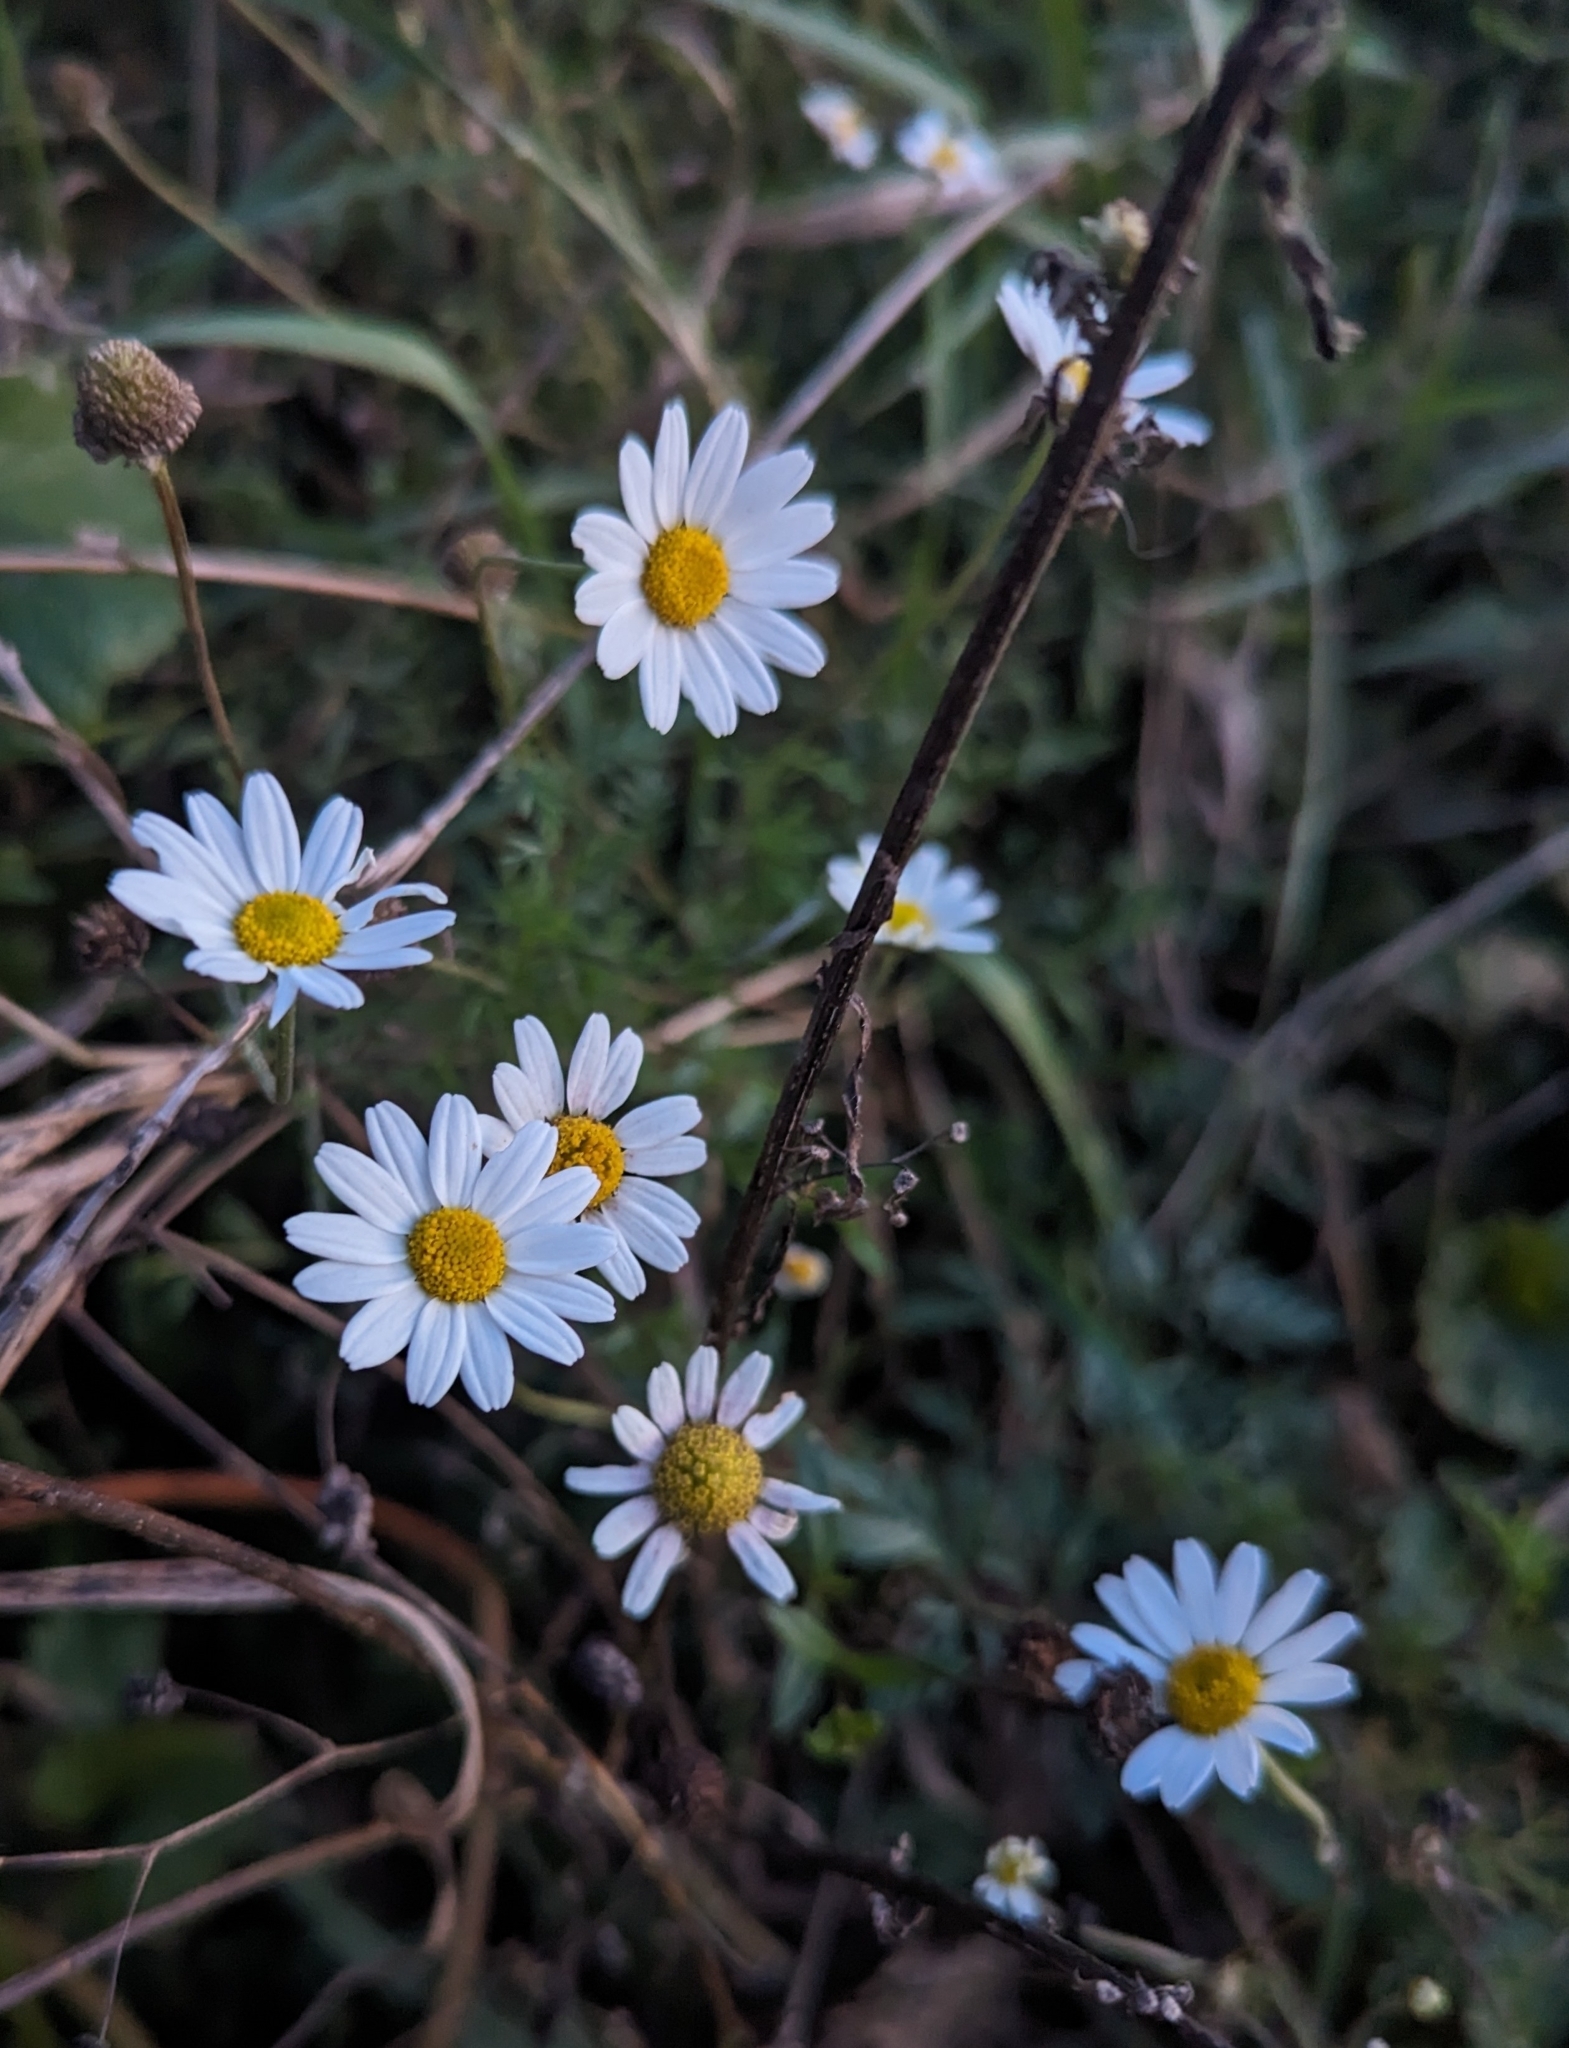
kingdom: Plantae
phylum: Tracheophyta
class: Magnoliopsida
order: Asterales
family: Asteraceae
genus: Leucanthemum
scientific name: Leucanthemum vulgare
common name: Oxeye daisy
